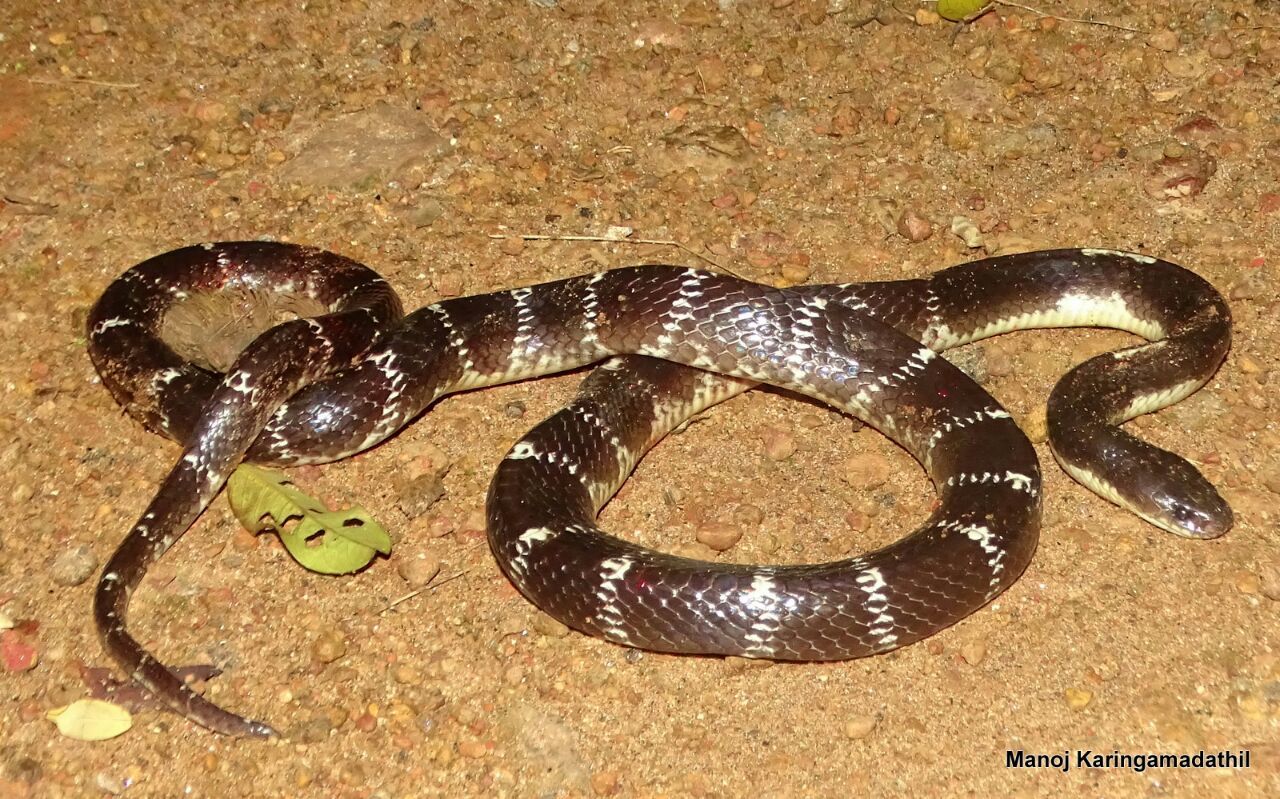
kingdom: Animalia
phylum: Chordata
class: Squamata
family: Elapidae
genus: Bungarus
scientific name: Bungarus caeruleus
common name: Common krait
